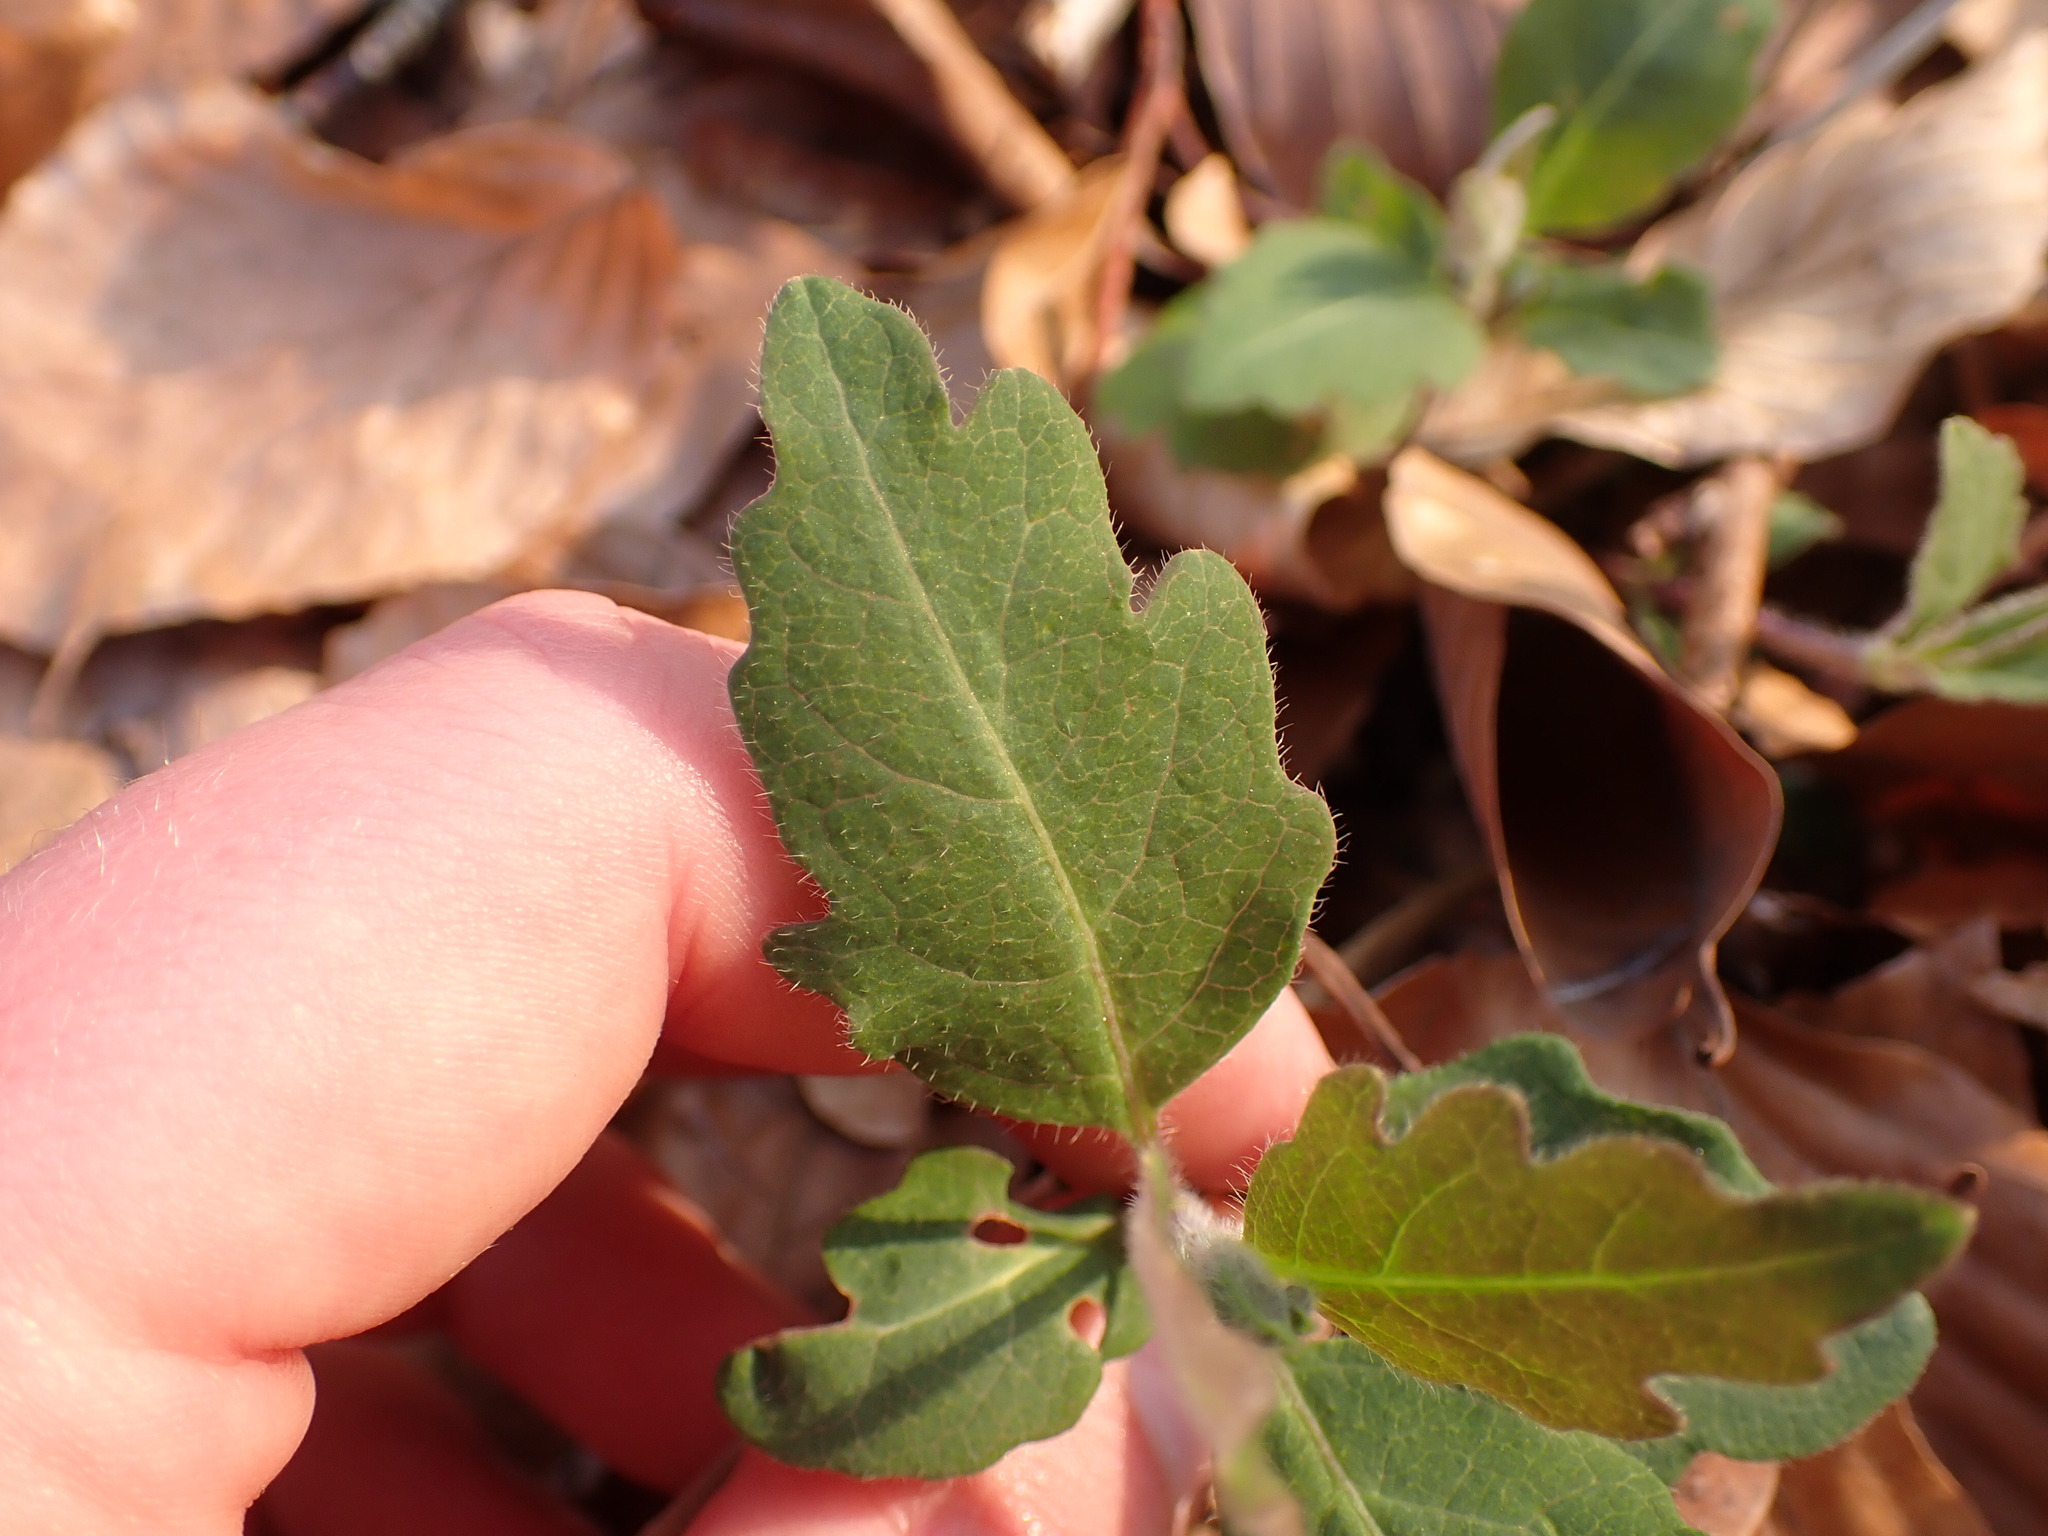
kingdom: Plantae
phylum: Tracheophyta
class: Magnoliopsida
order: Dipsacales
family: Caprifoliaceae
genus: Lonicera
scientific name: Lonicera periclymenum
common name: European honeysuckle
